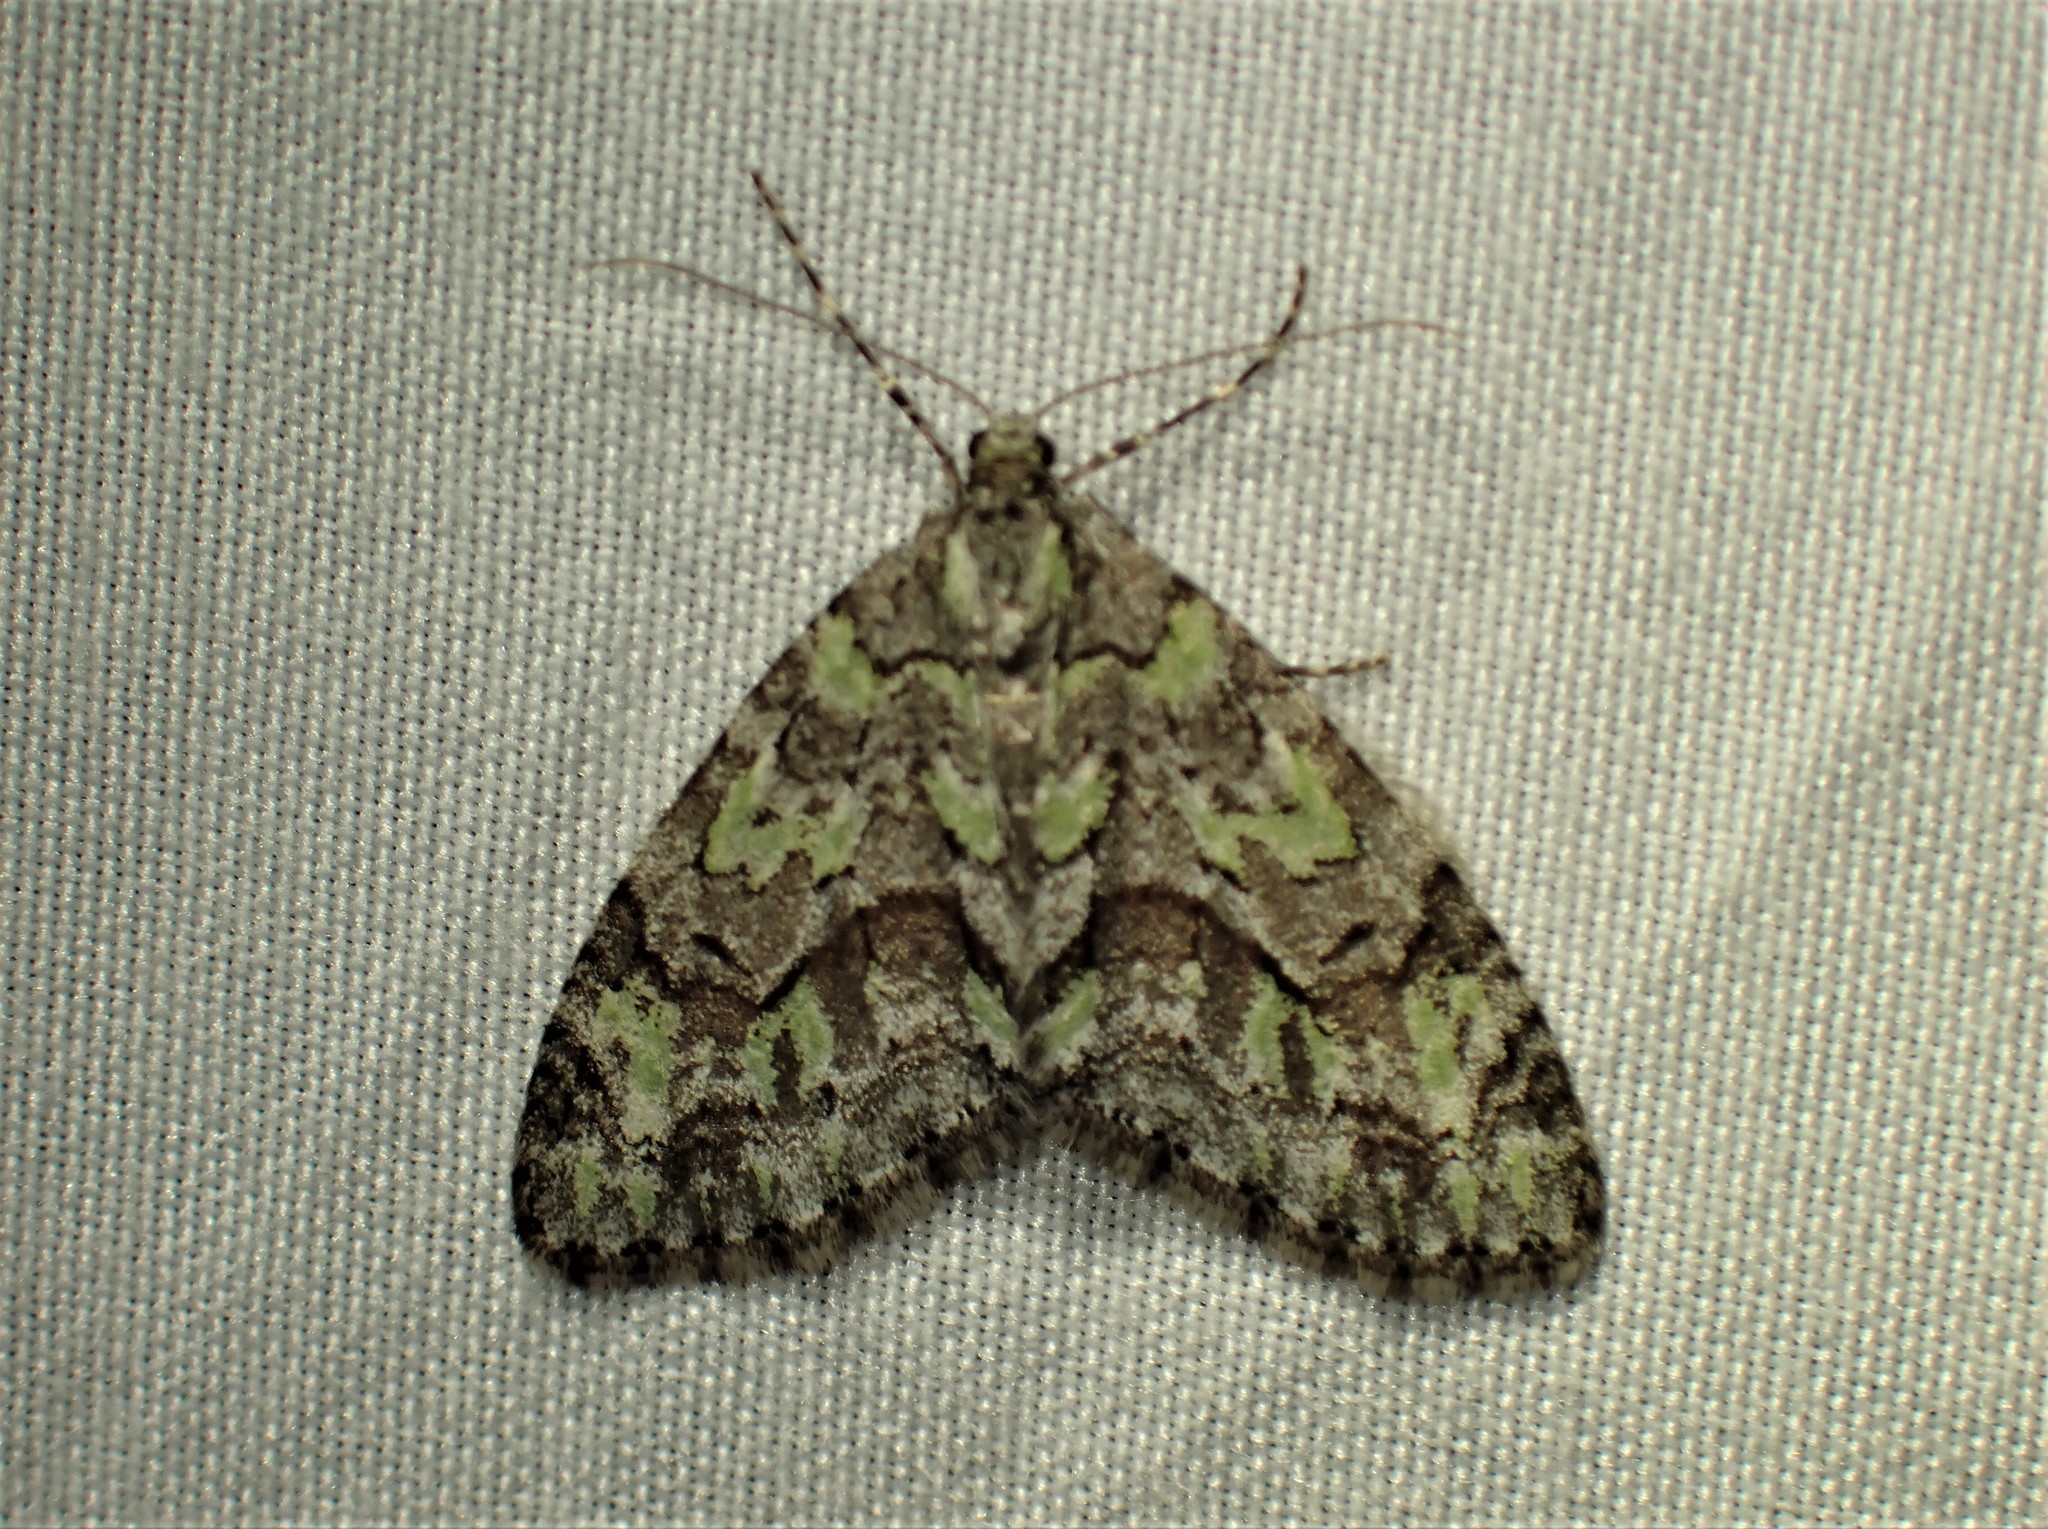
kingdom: Animalia
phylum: Arthropoda
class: Insecta
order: Lepidoptera
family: Geometridae
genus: Cladara
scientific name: Cladara limitaria
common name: Mottled gray carpet
